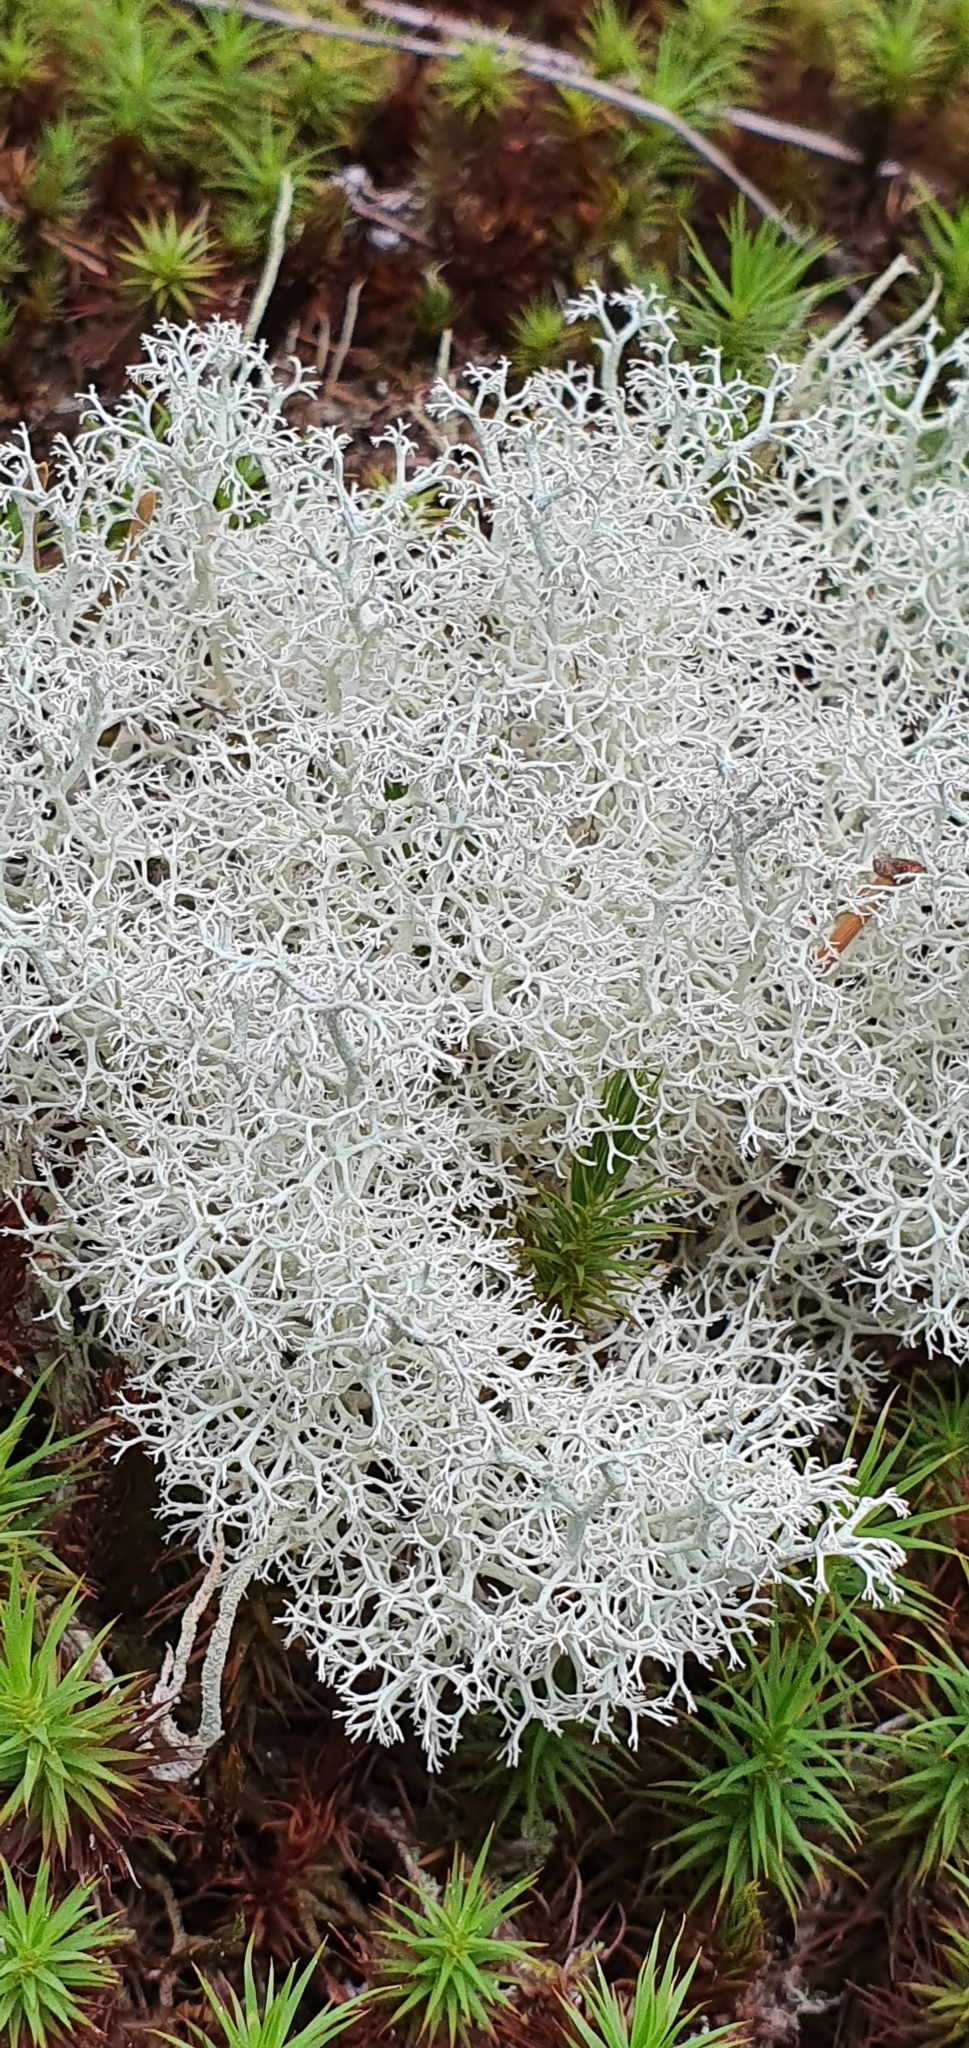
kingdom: Fungi
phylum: Ascomycota
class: Lecanoromycetes
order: Lecanorales
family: Cladoniaceae
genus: Cladonia
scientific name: Cladonia portentosa
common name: Reindeer lichen
